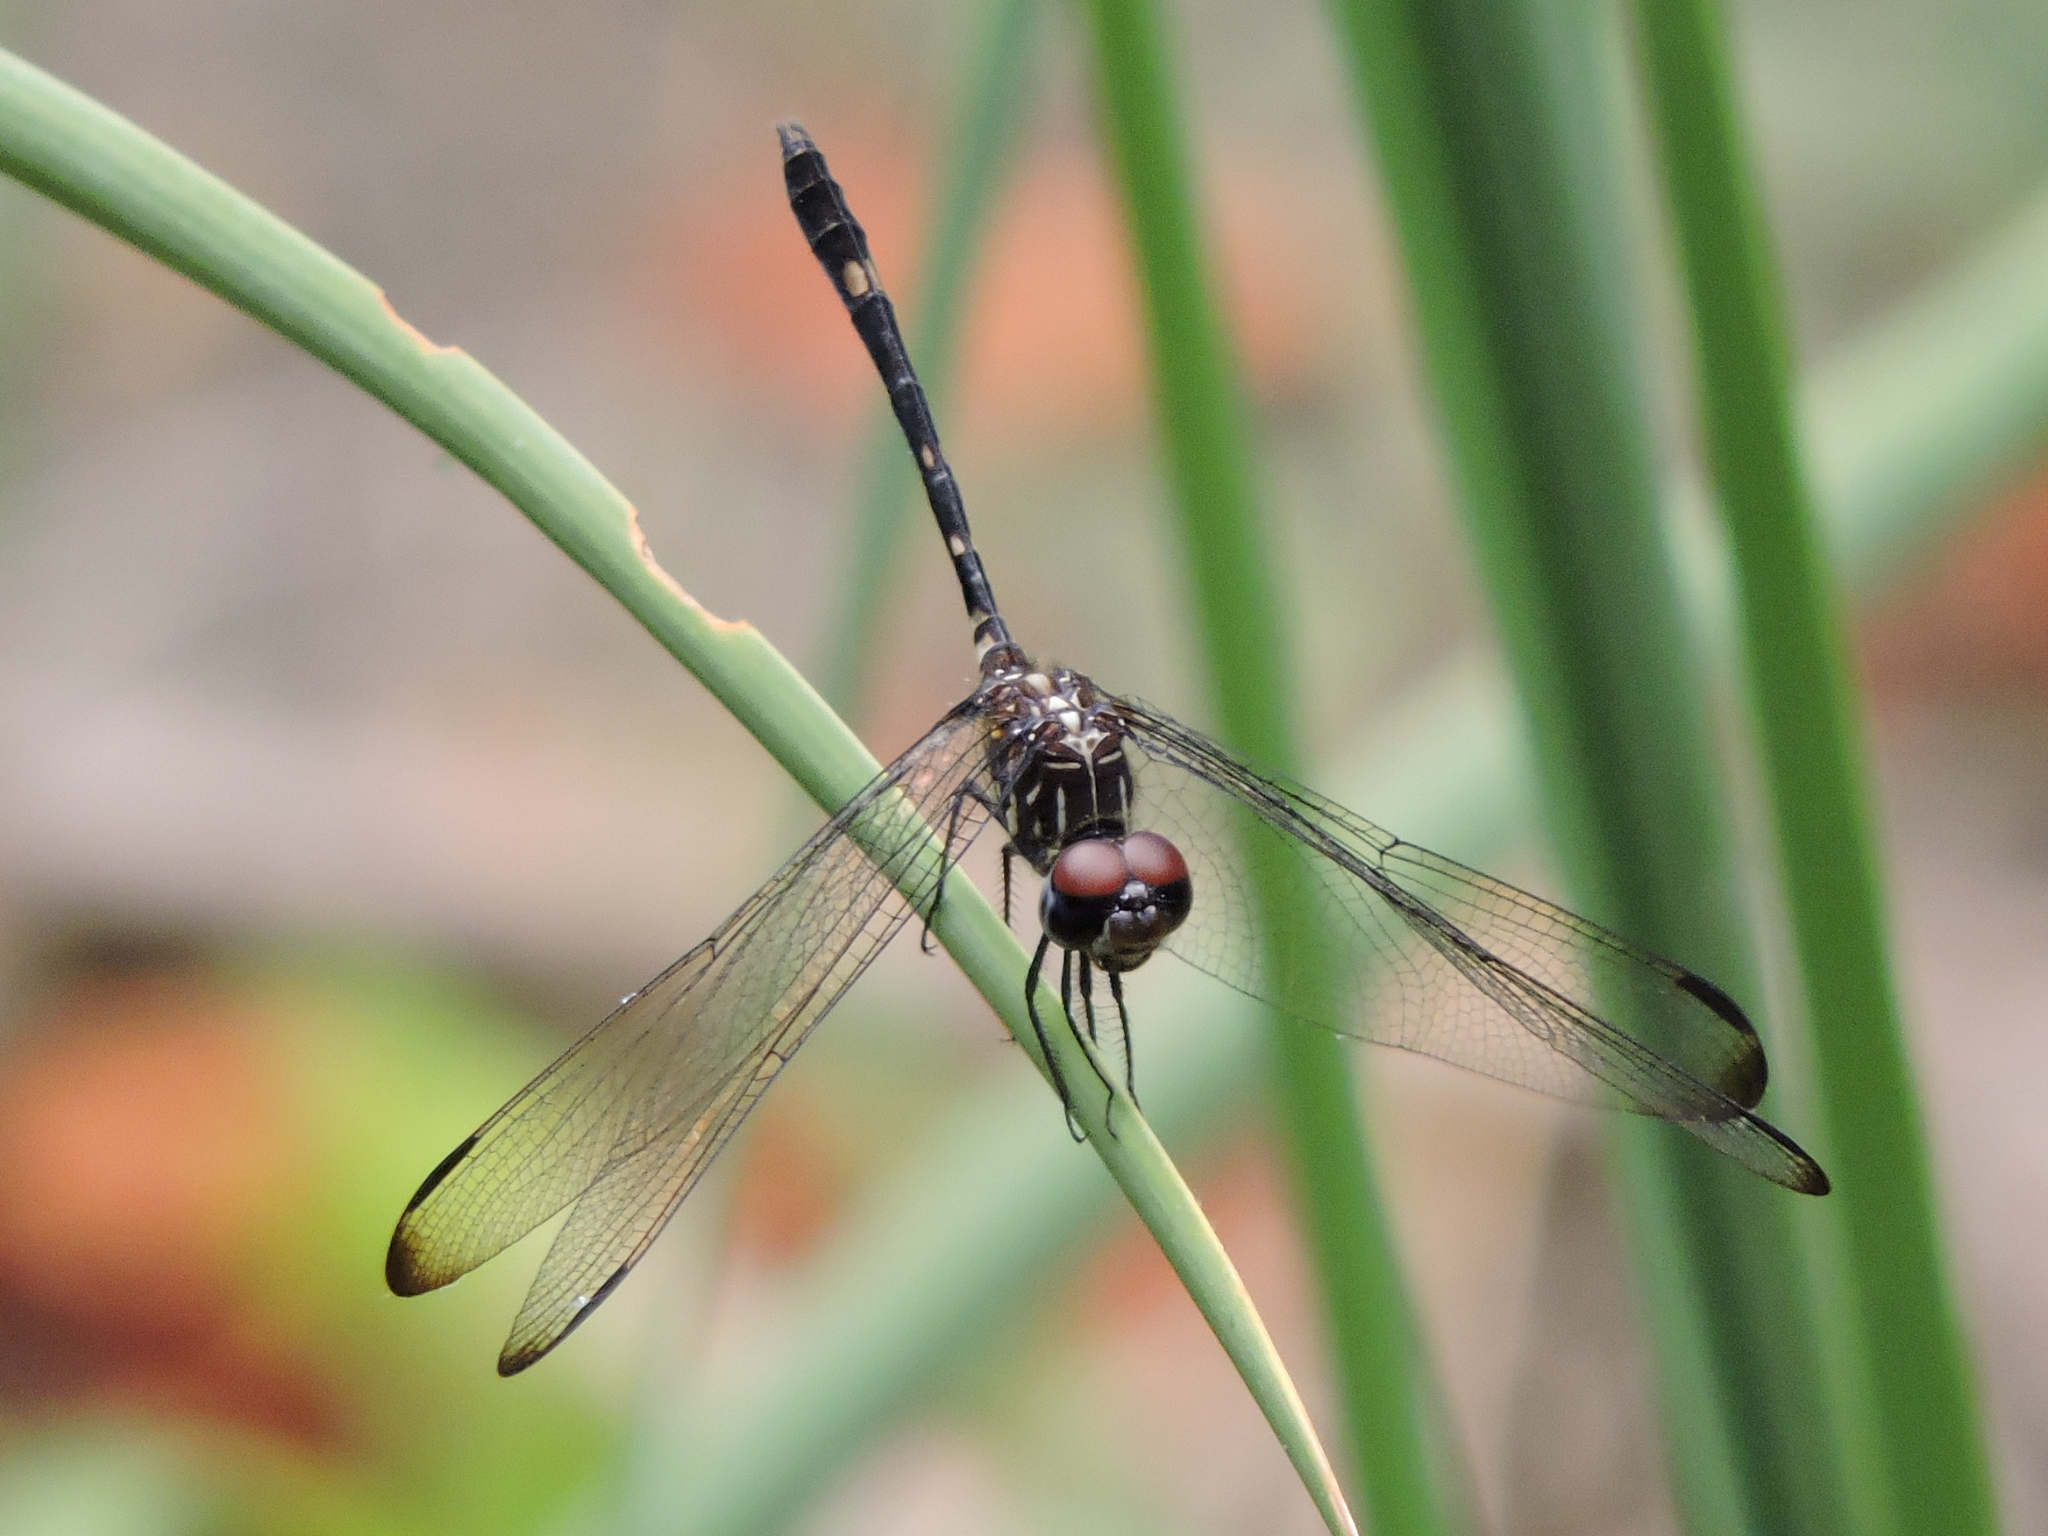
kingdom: Animalia
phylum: Arthropoda
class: Insecta
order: Odonata
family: Libellulidae
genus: Dythemis
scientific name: Dythemis velox
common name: Swift setwing
